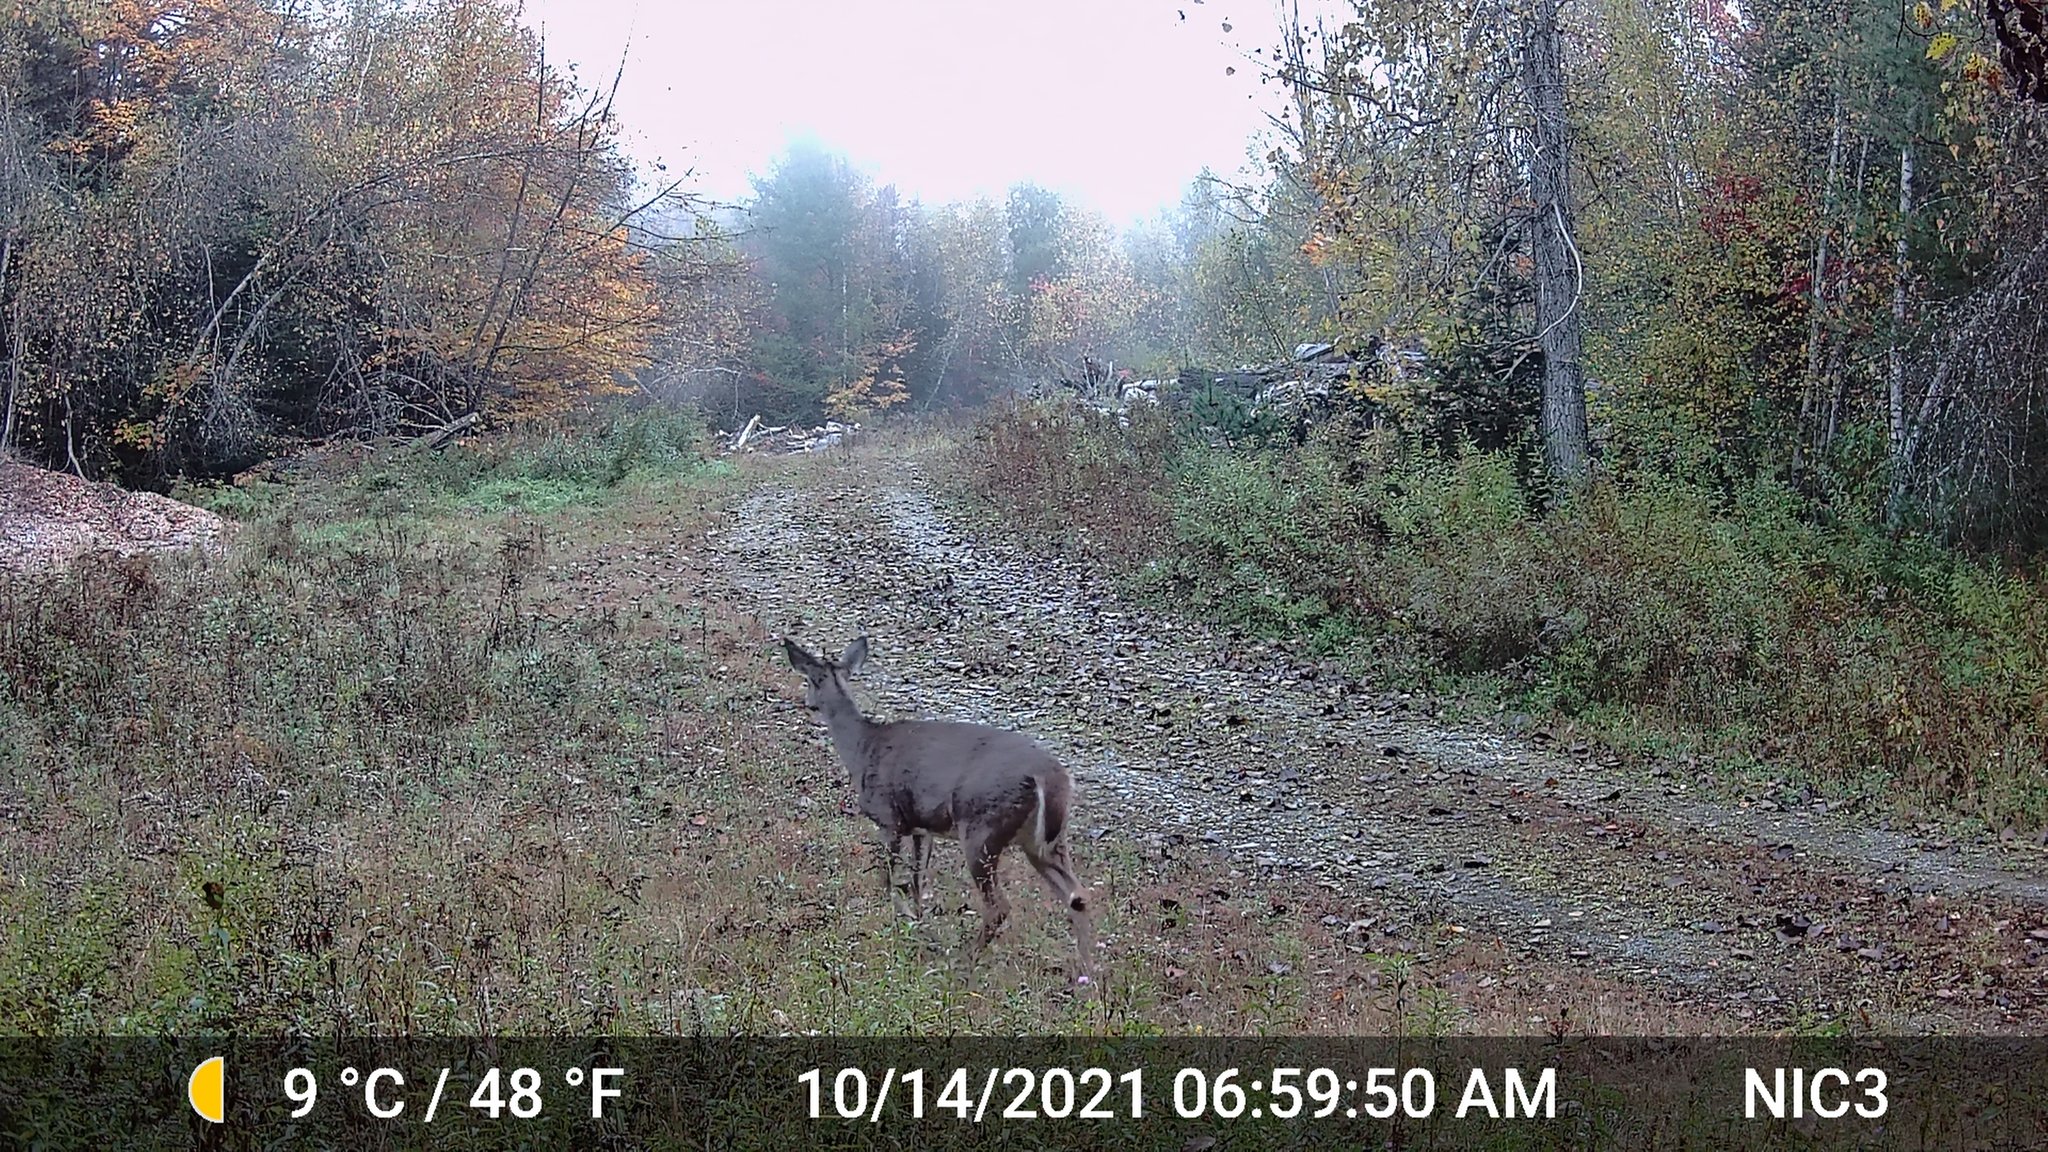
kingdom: Animalia
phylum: Chordata
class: Mammalia
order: Artiodactyla
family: Cervidae
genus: Odocoileus
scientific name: Odocoileus virginianus
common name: White-tailed deer
